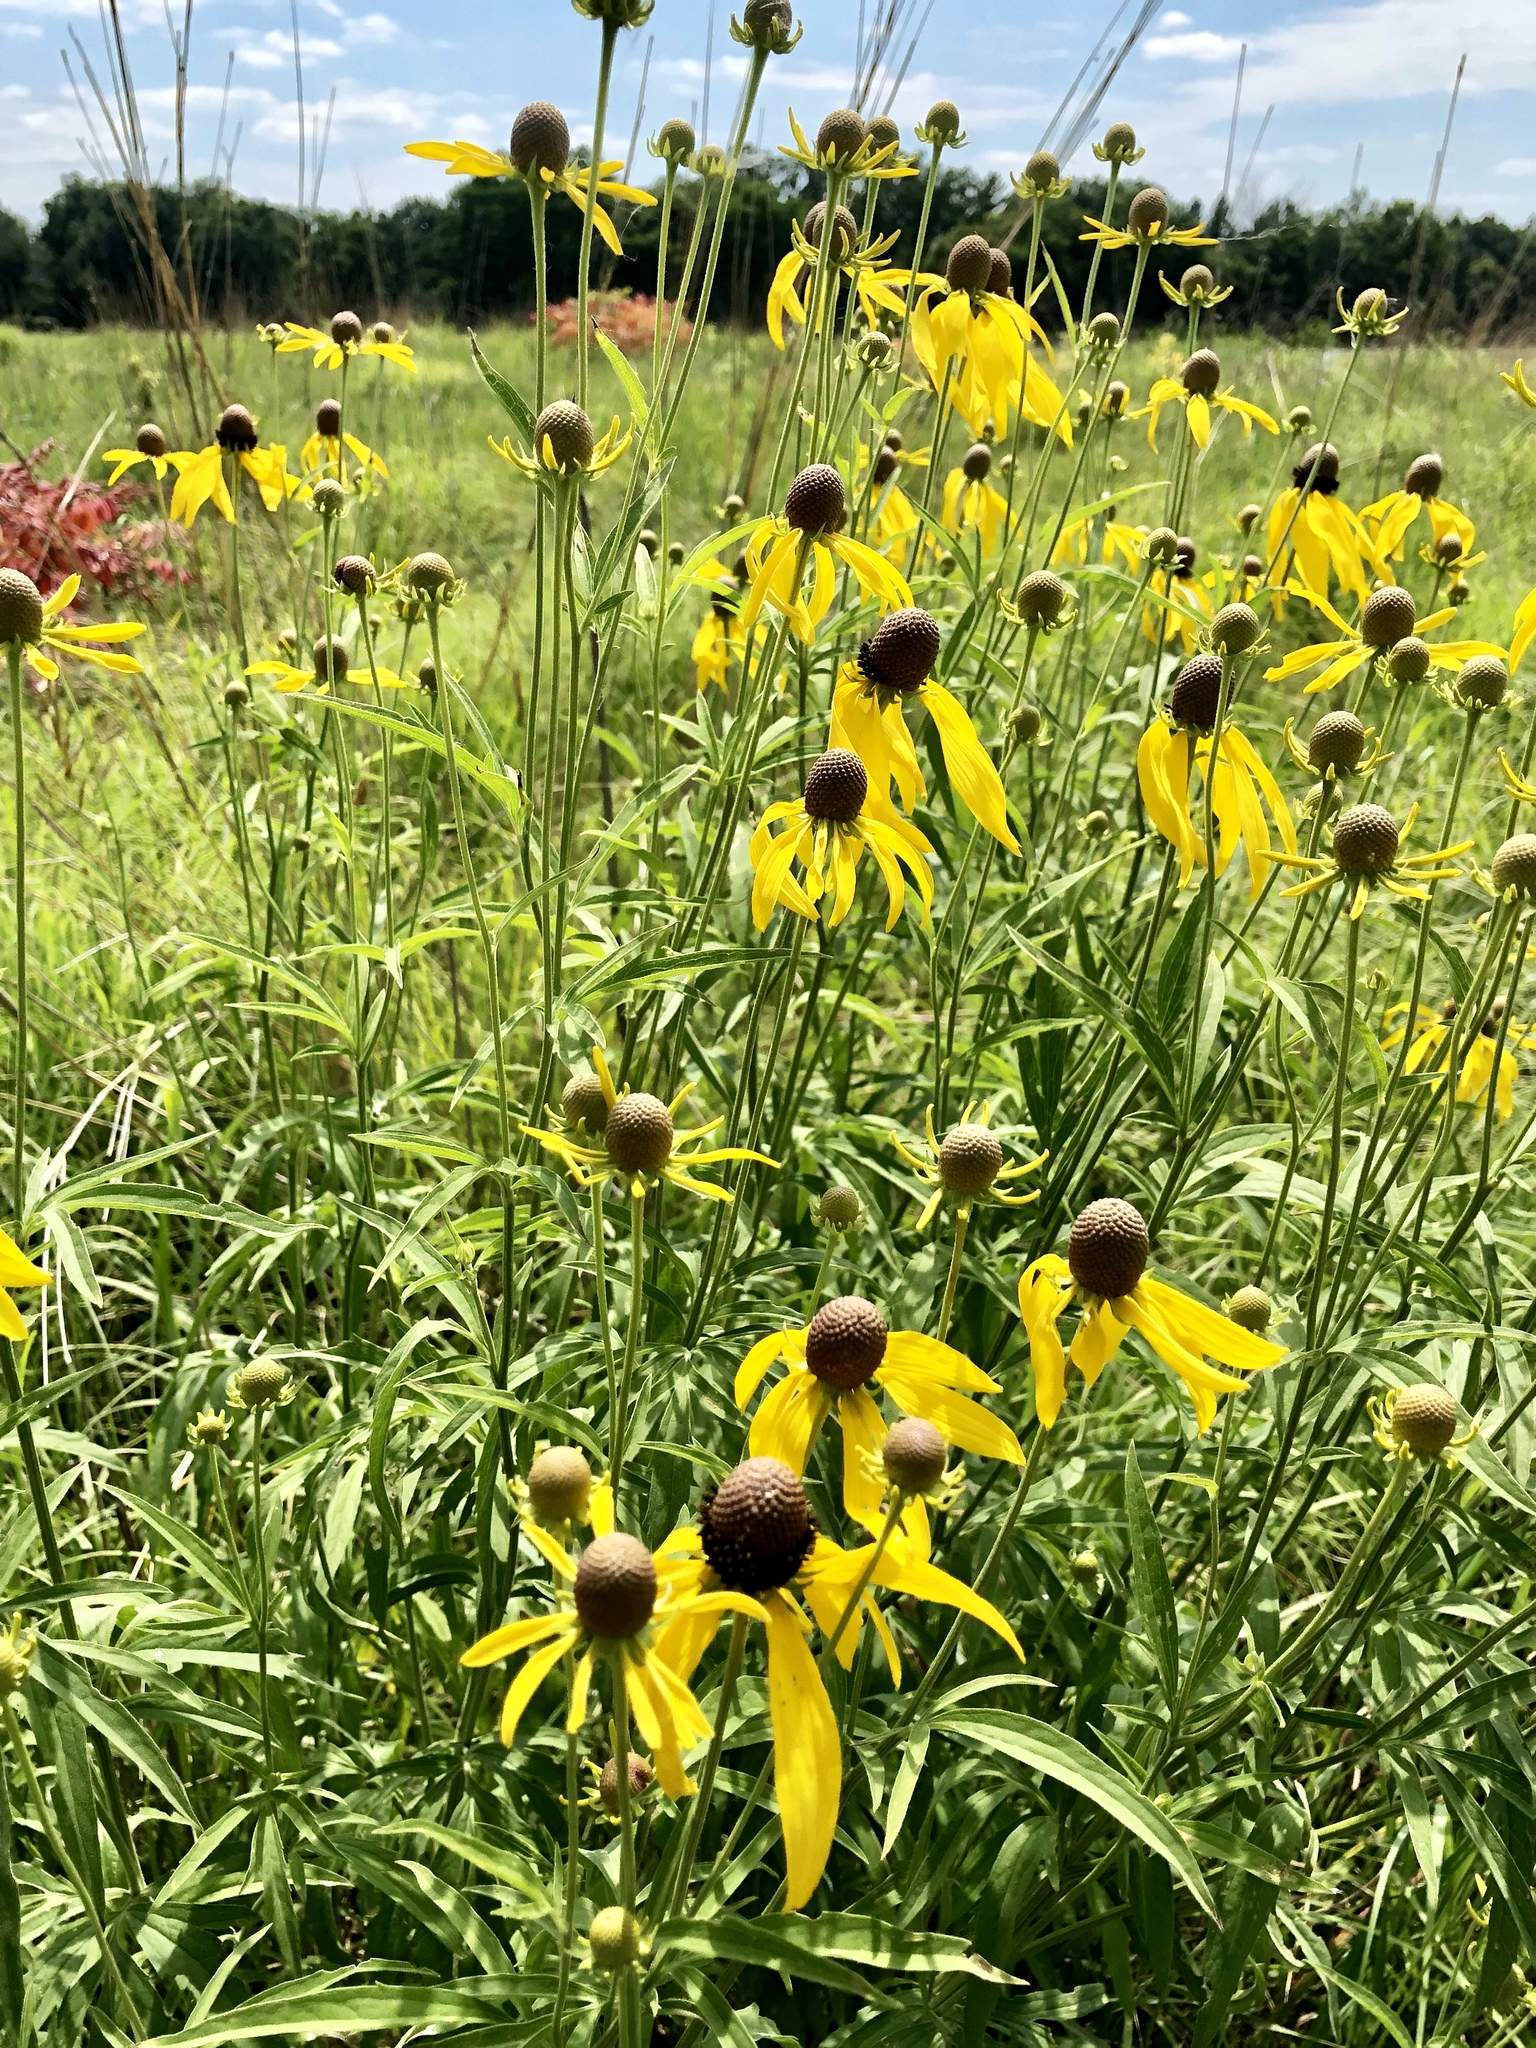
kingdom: Plantae
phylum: Tracheophyta
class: Magnoliopsida
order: Asterales
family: Asteraceae
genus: Ratibida
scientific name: Ratibida pinnata
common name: Drooping prairie-coneflower
